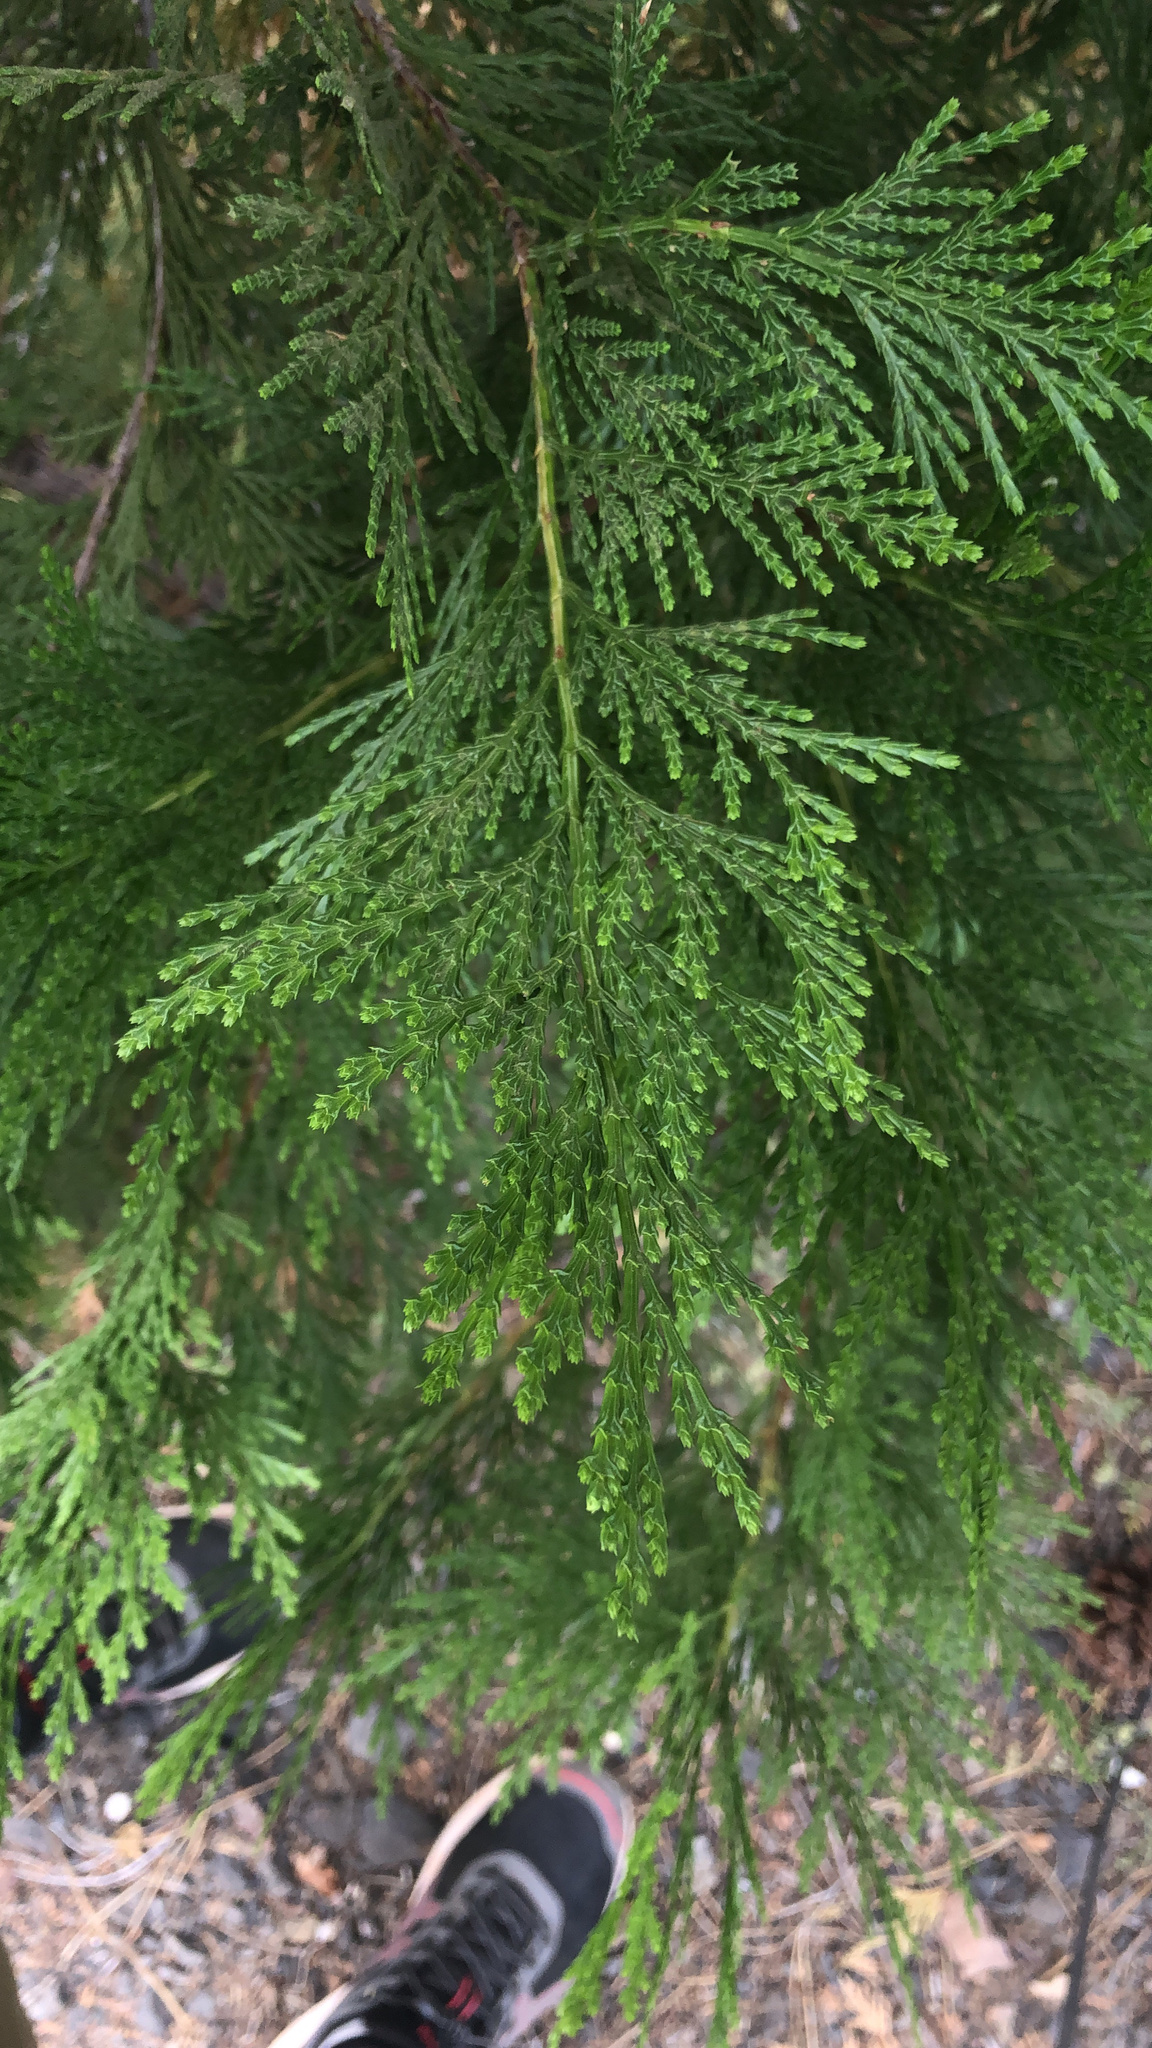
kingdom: Plantae
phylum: Tracheophyta
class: Pinopsida
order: Pinales
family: Cupressaceae
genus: Calocedrus
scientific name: Calocedrus decurrens
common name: Californian incense-cedar
